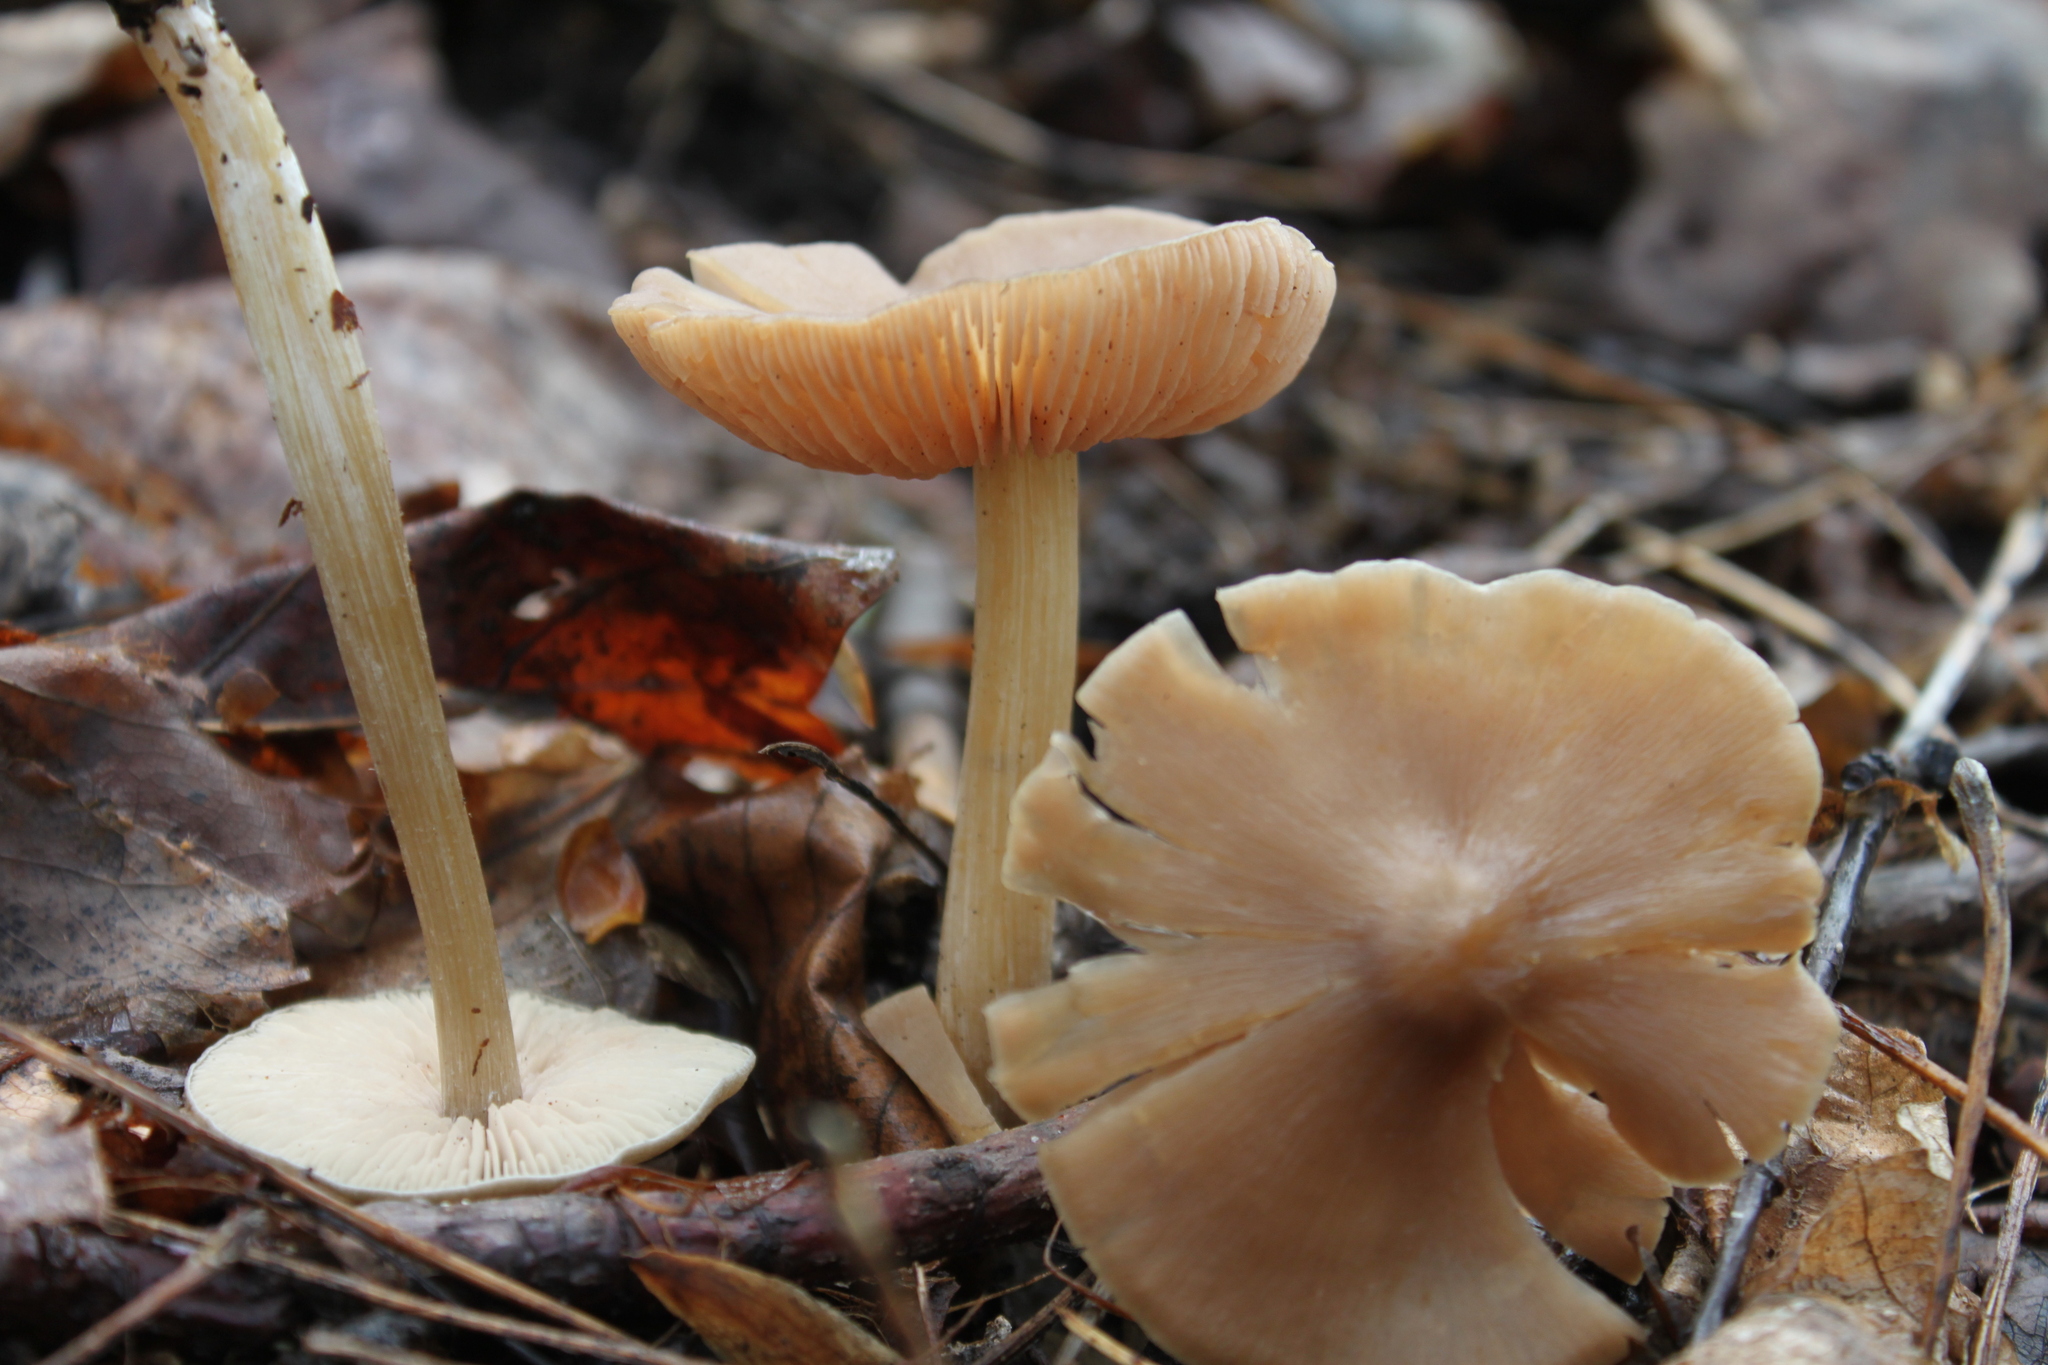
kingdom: Fungi
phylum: Basidiomycota
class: Agaricomycetes
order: Agaricales
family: Entolomataceae
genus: Entoloma
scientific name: Entoloma vernum
